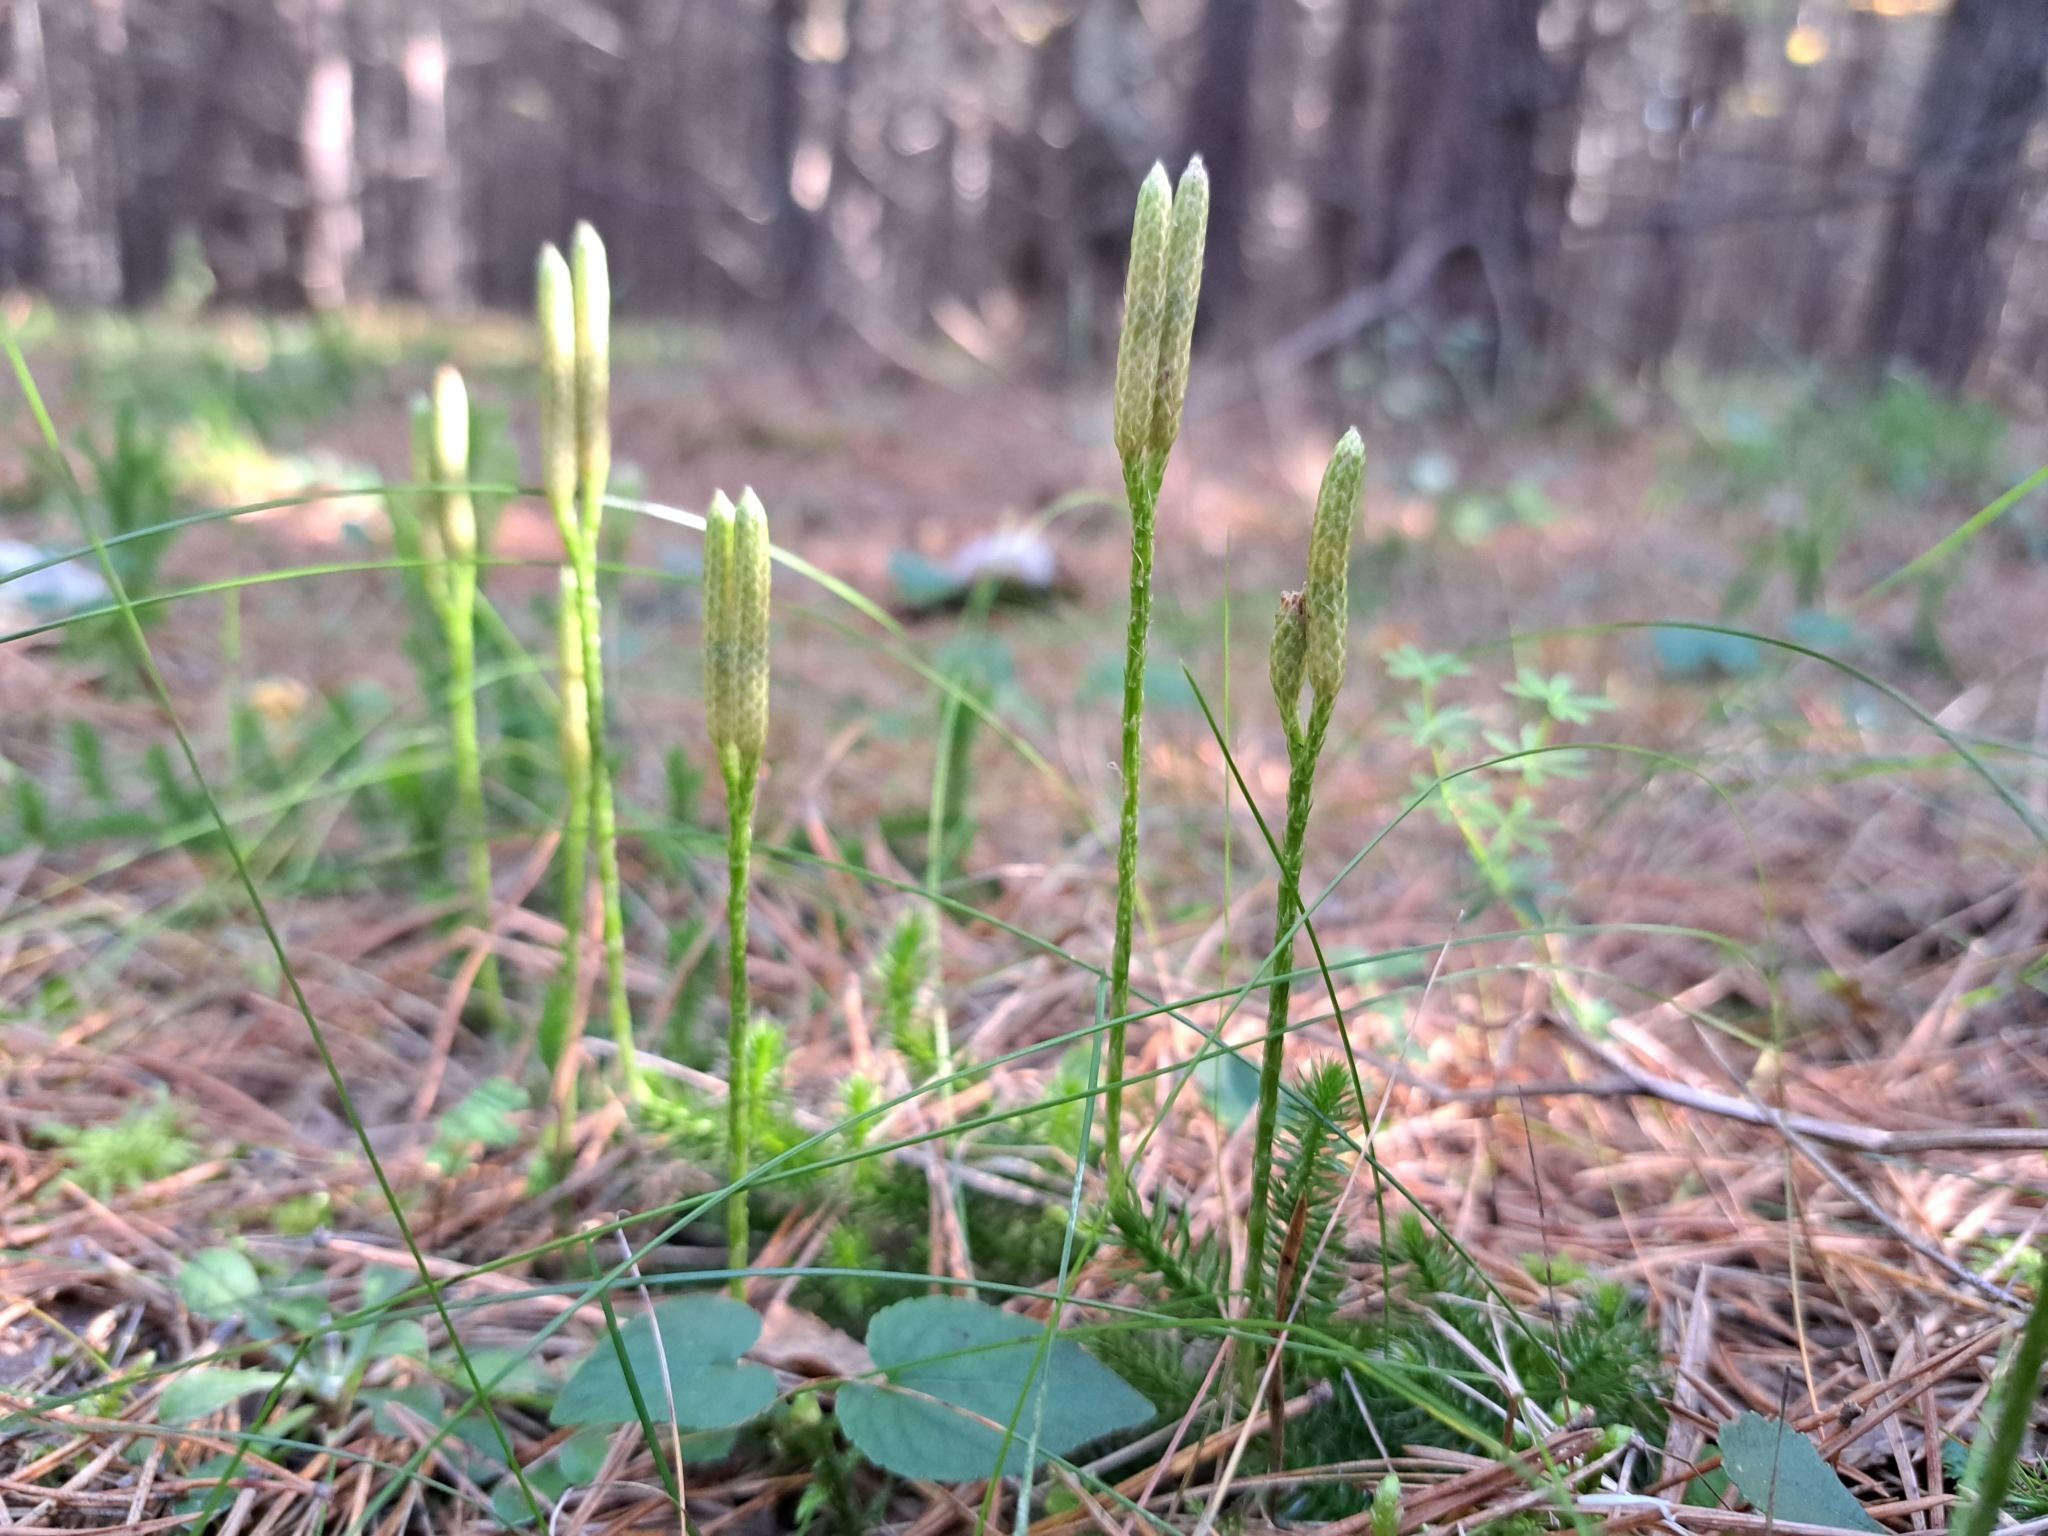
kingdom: Plantae
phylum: Tracheophyta
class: Lycopodiopsida
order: Lycopodiales
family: Lycopodiaceae
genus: Lycopodium
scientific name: Lycopodium clavatum
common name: Stag's-horn clubmoss
